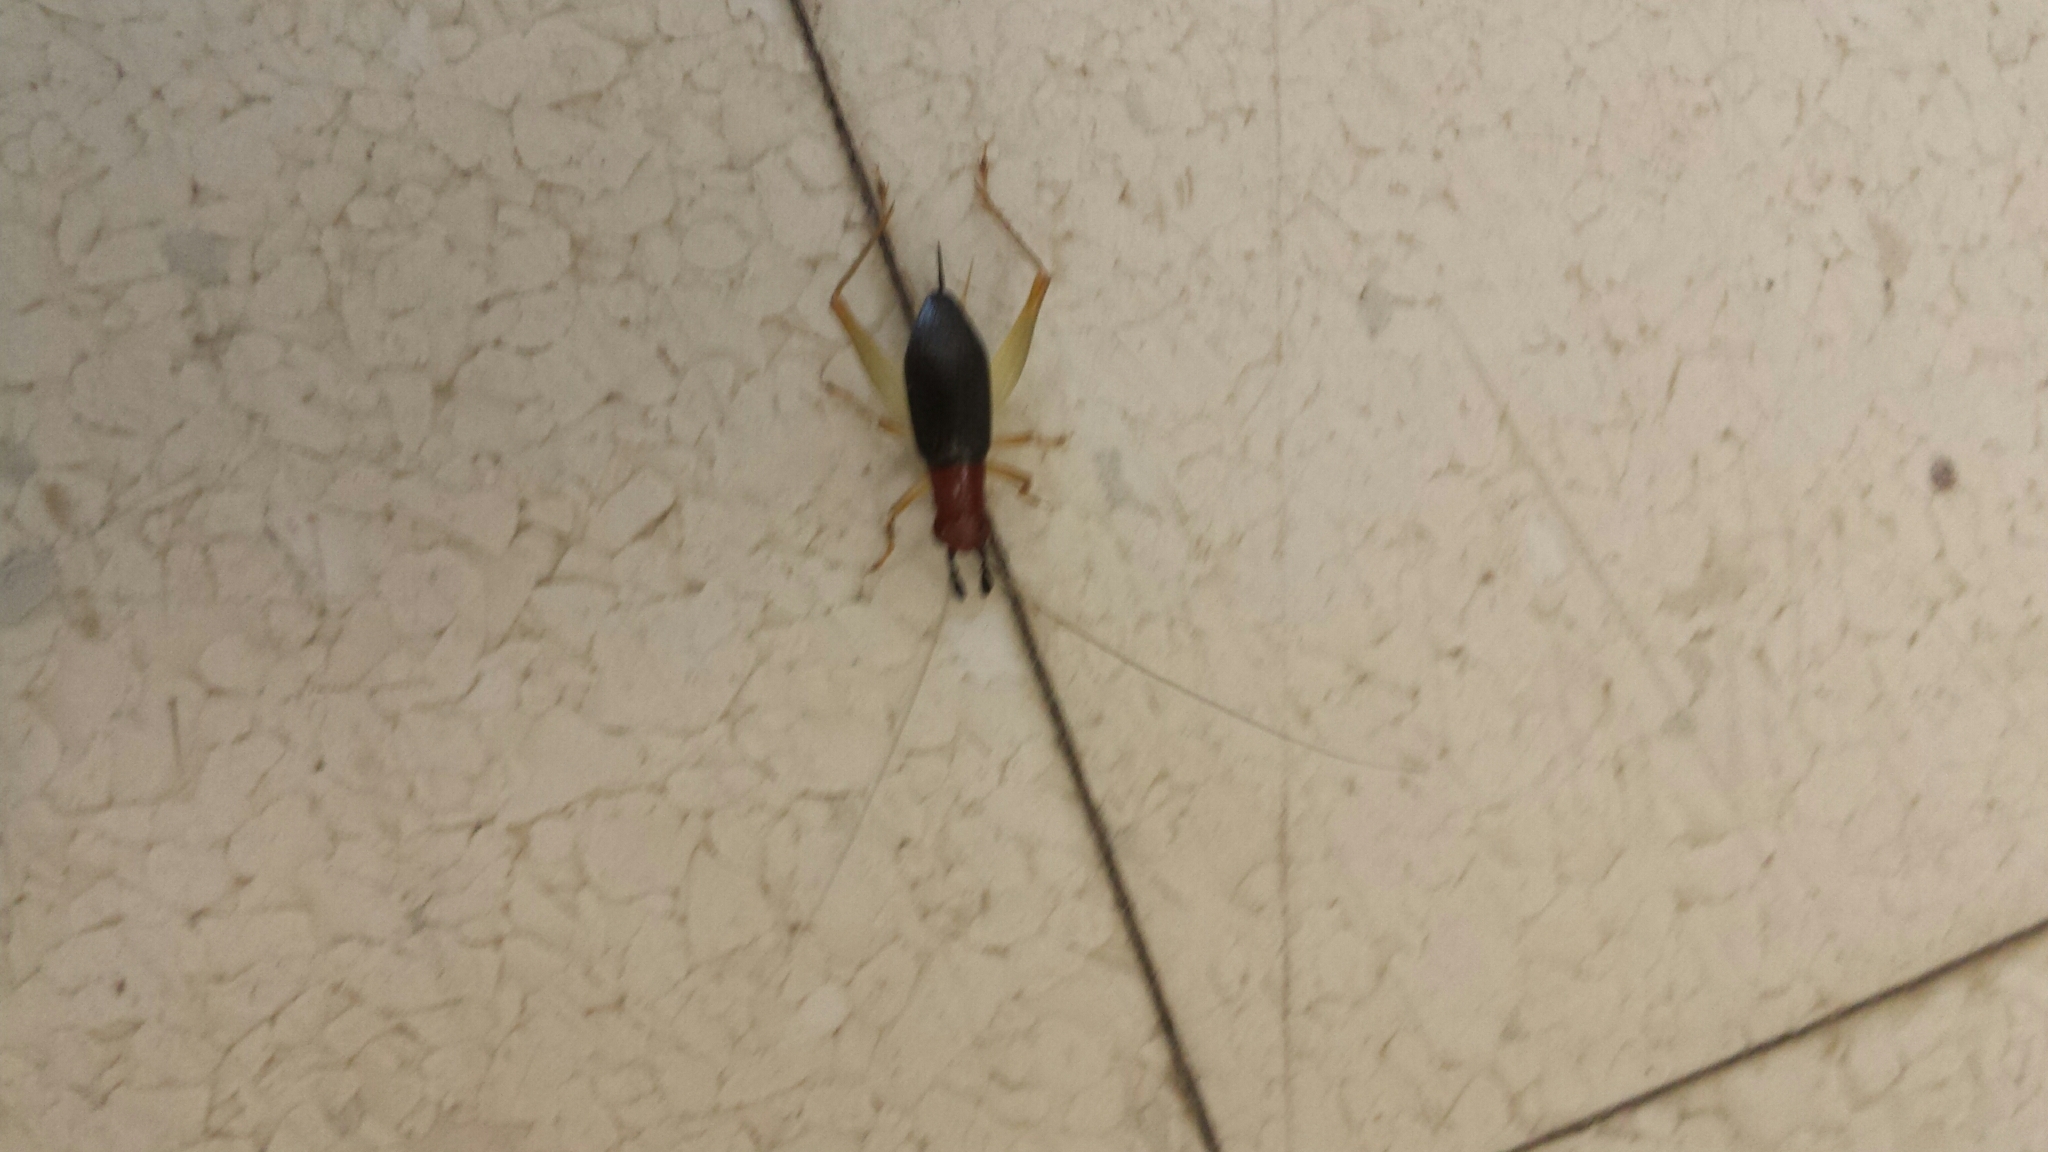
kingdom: Animalia
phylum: Arthropoda
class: Insecta
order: Orthoptera
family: Trigonidiidae
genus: Phyllopalpus
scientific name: Phyllopalpus pulchellus
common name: Handsome trig
